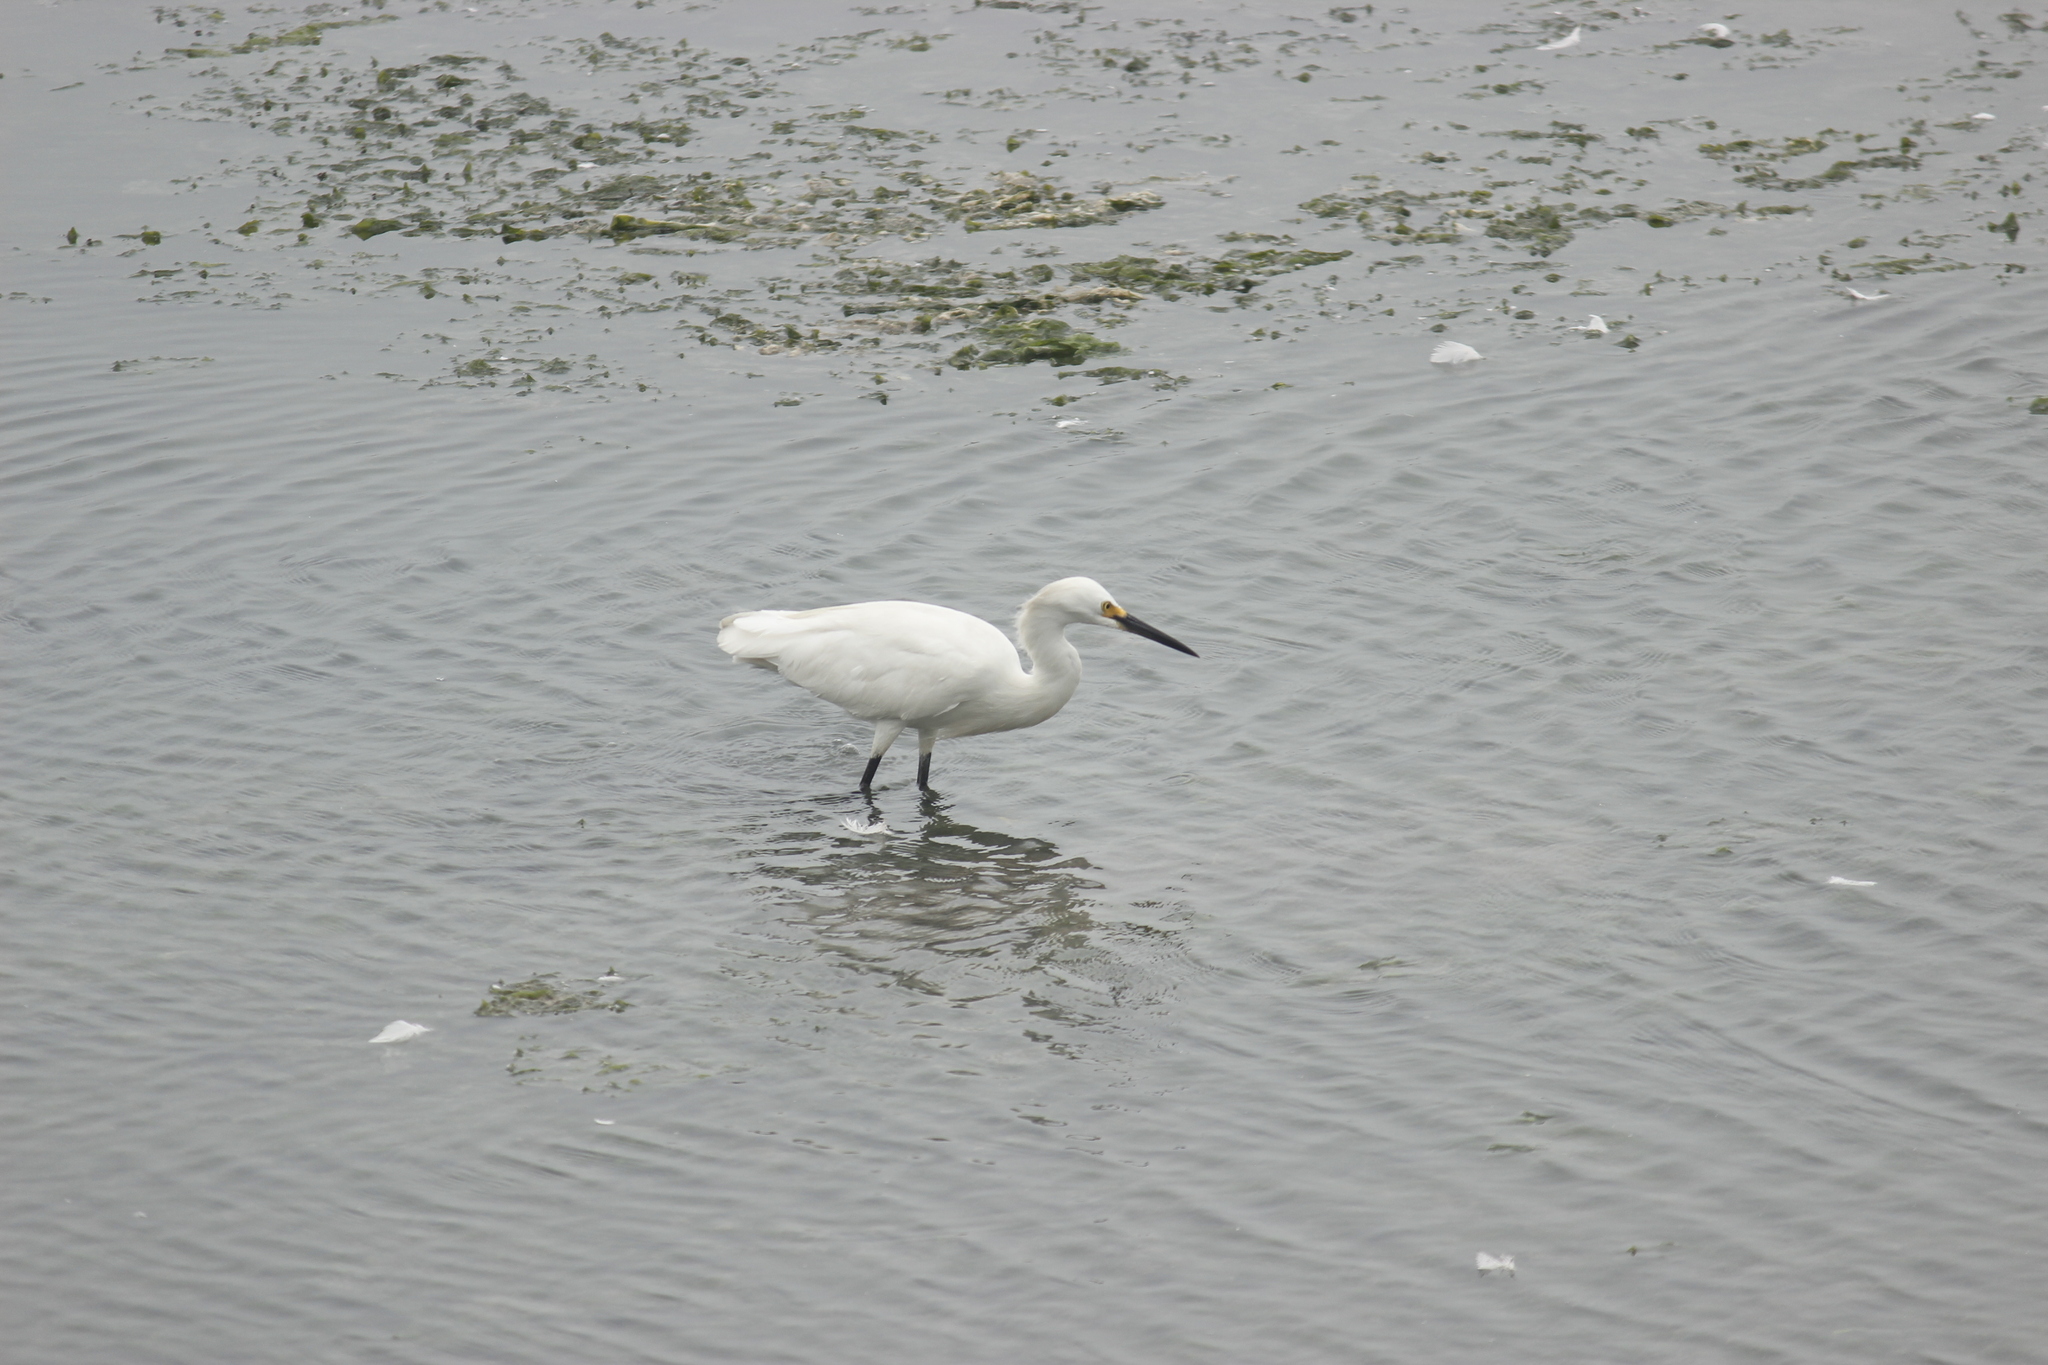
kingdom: Animalia
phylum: Chordata
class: Aves
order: Pelecaniformes
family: Ardeidae
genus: Egretta
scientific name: Egretta thula
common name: Snowy egret
